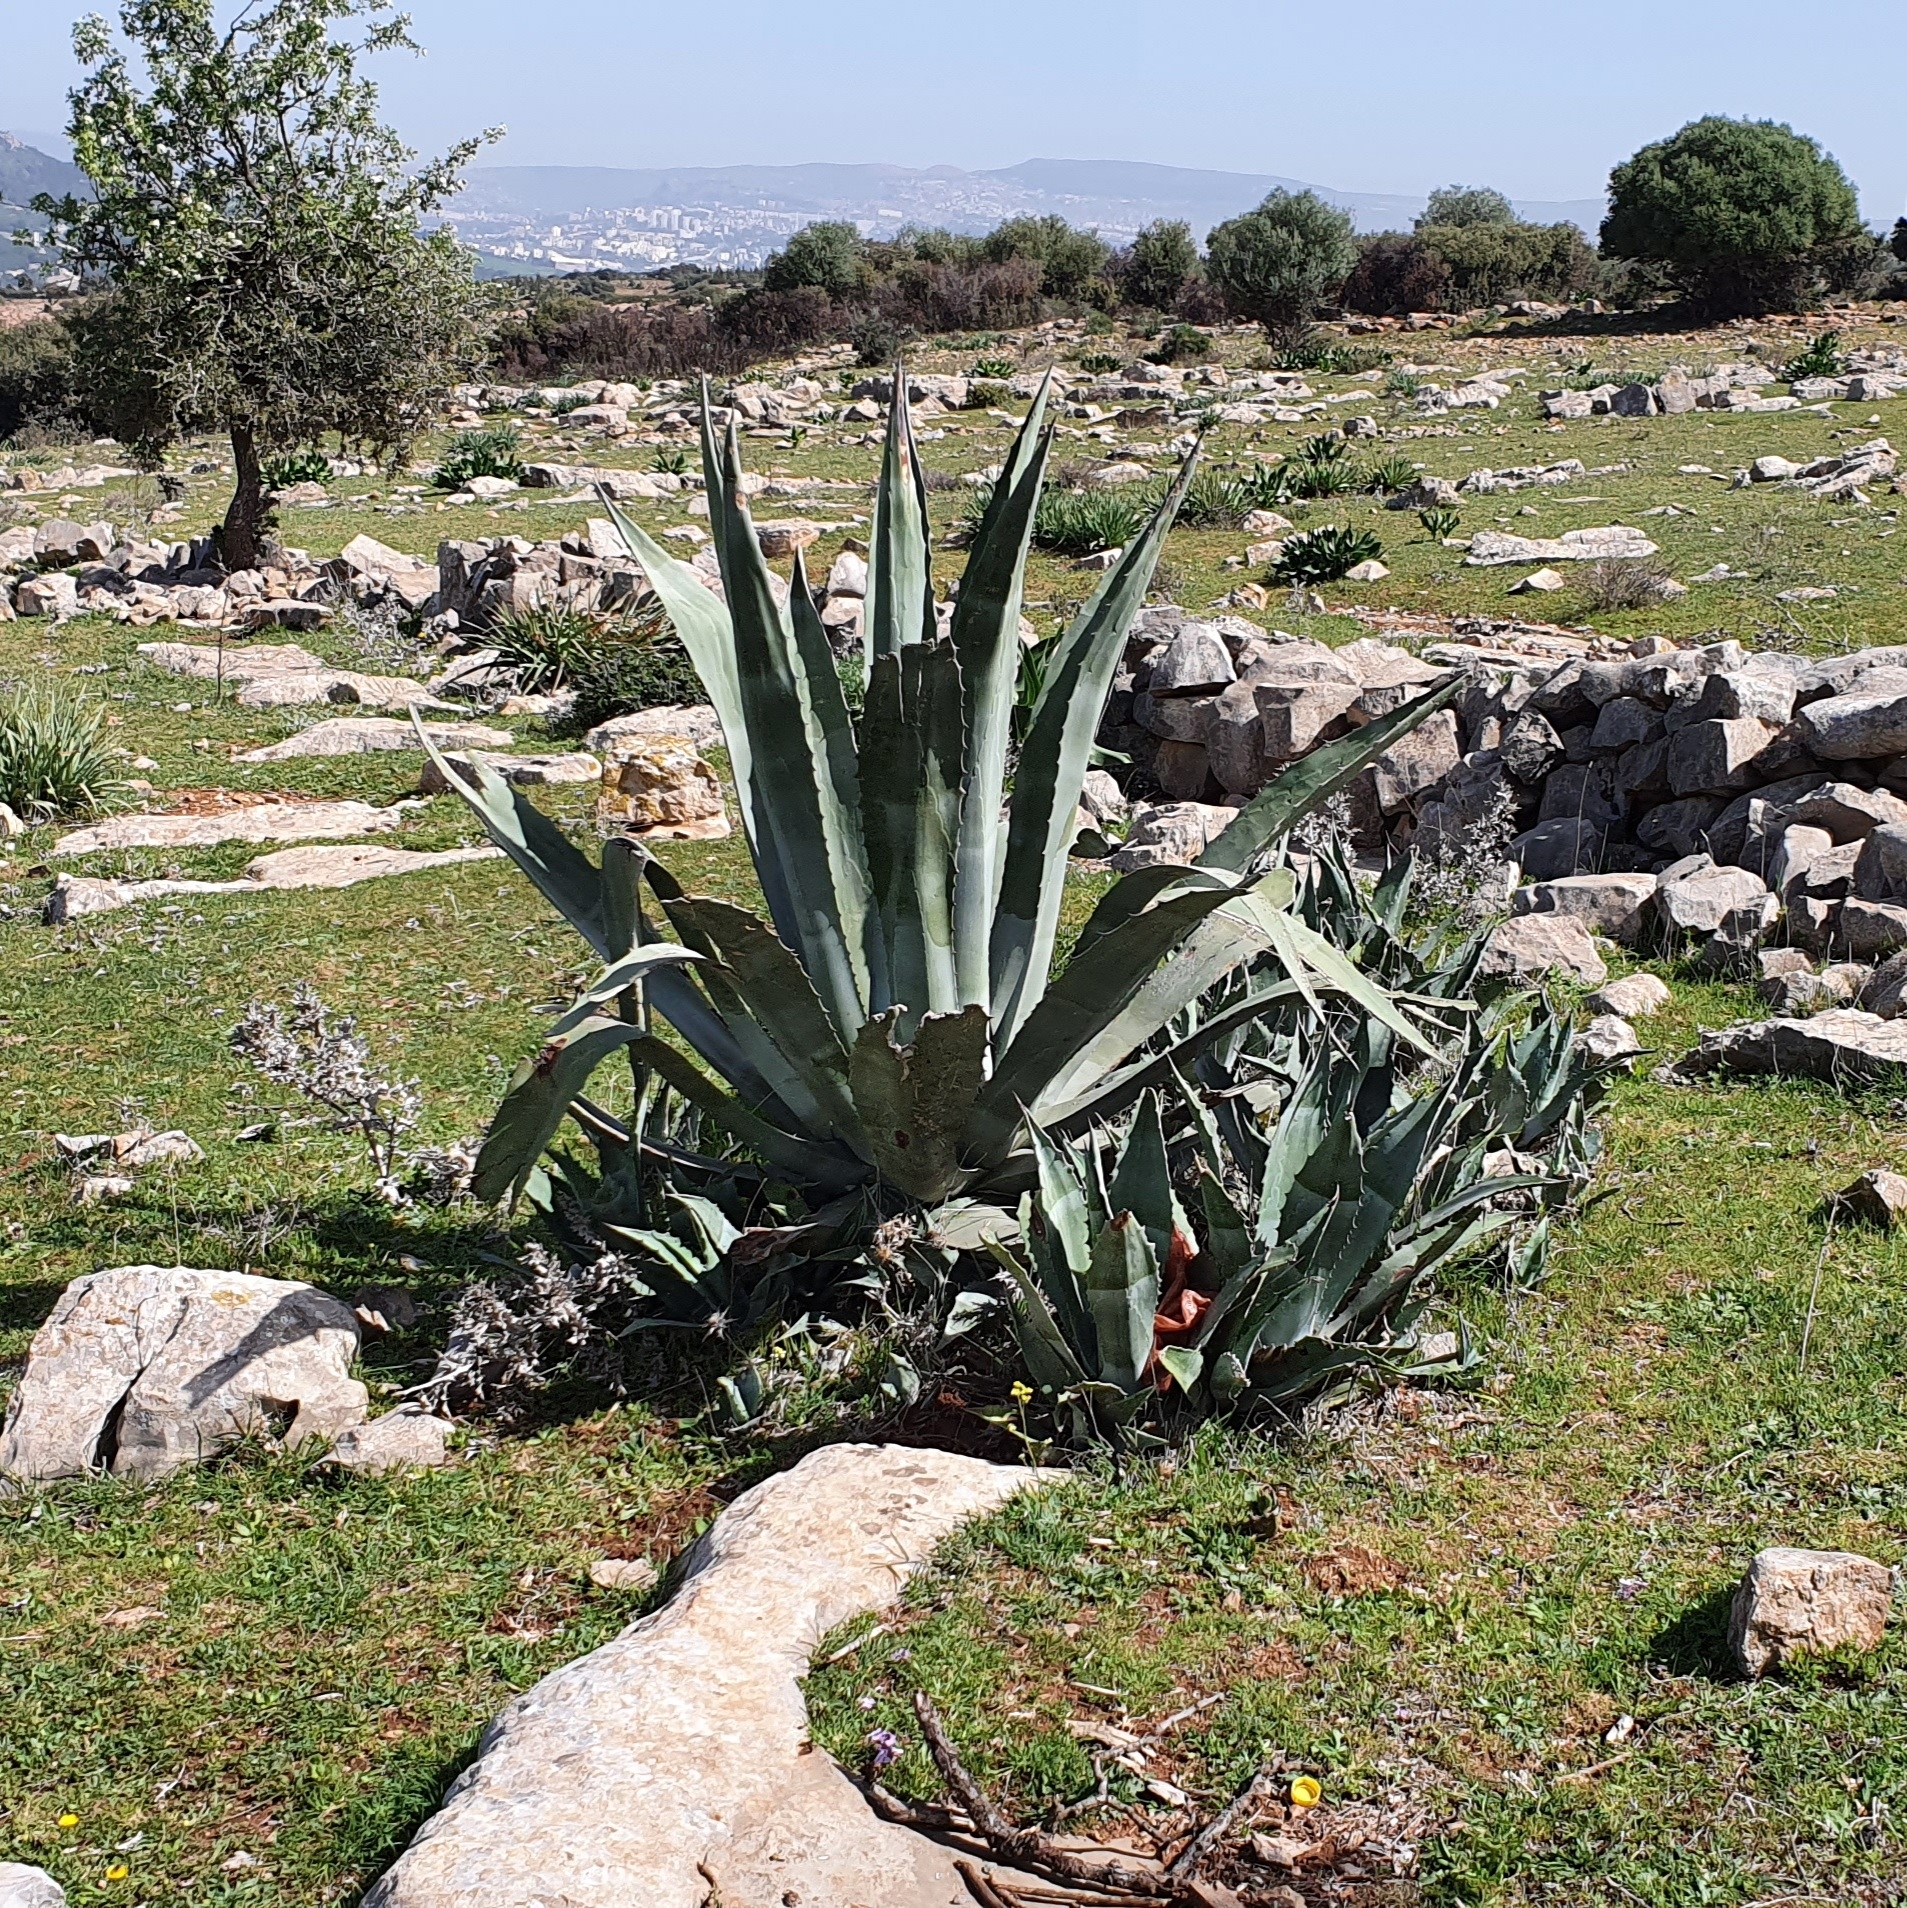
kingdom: Plantae
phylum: Tracheophyta
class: Liliopsida
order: Asparagales
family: Asparagaceae
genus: Agave
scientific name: Agave americana
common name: Centuryplant
